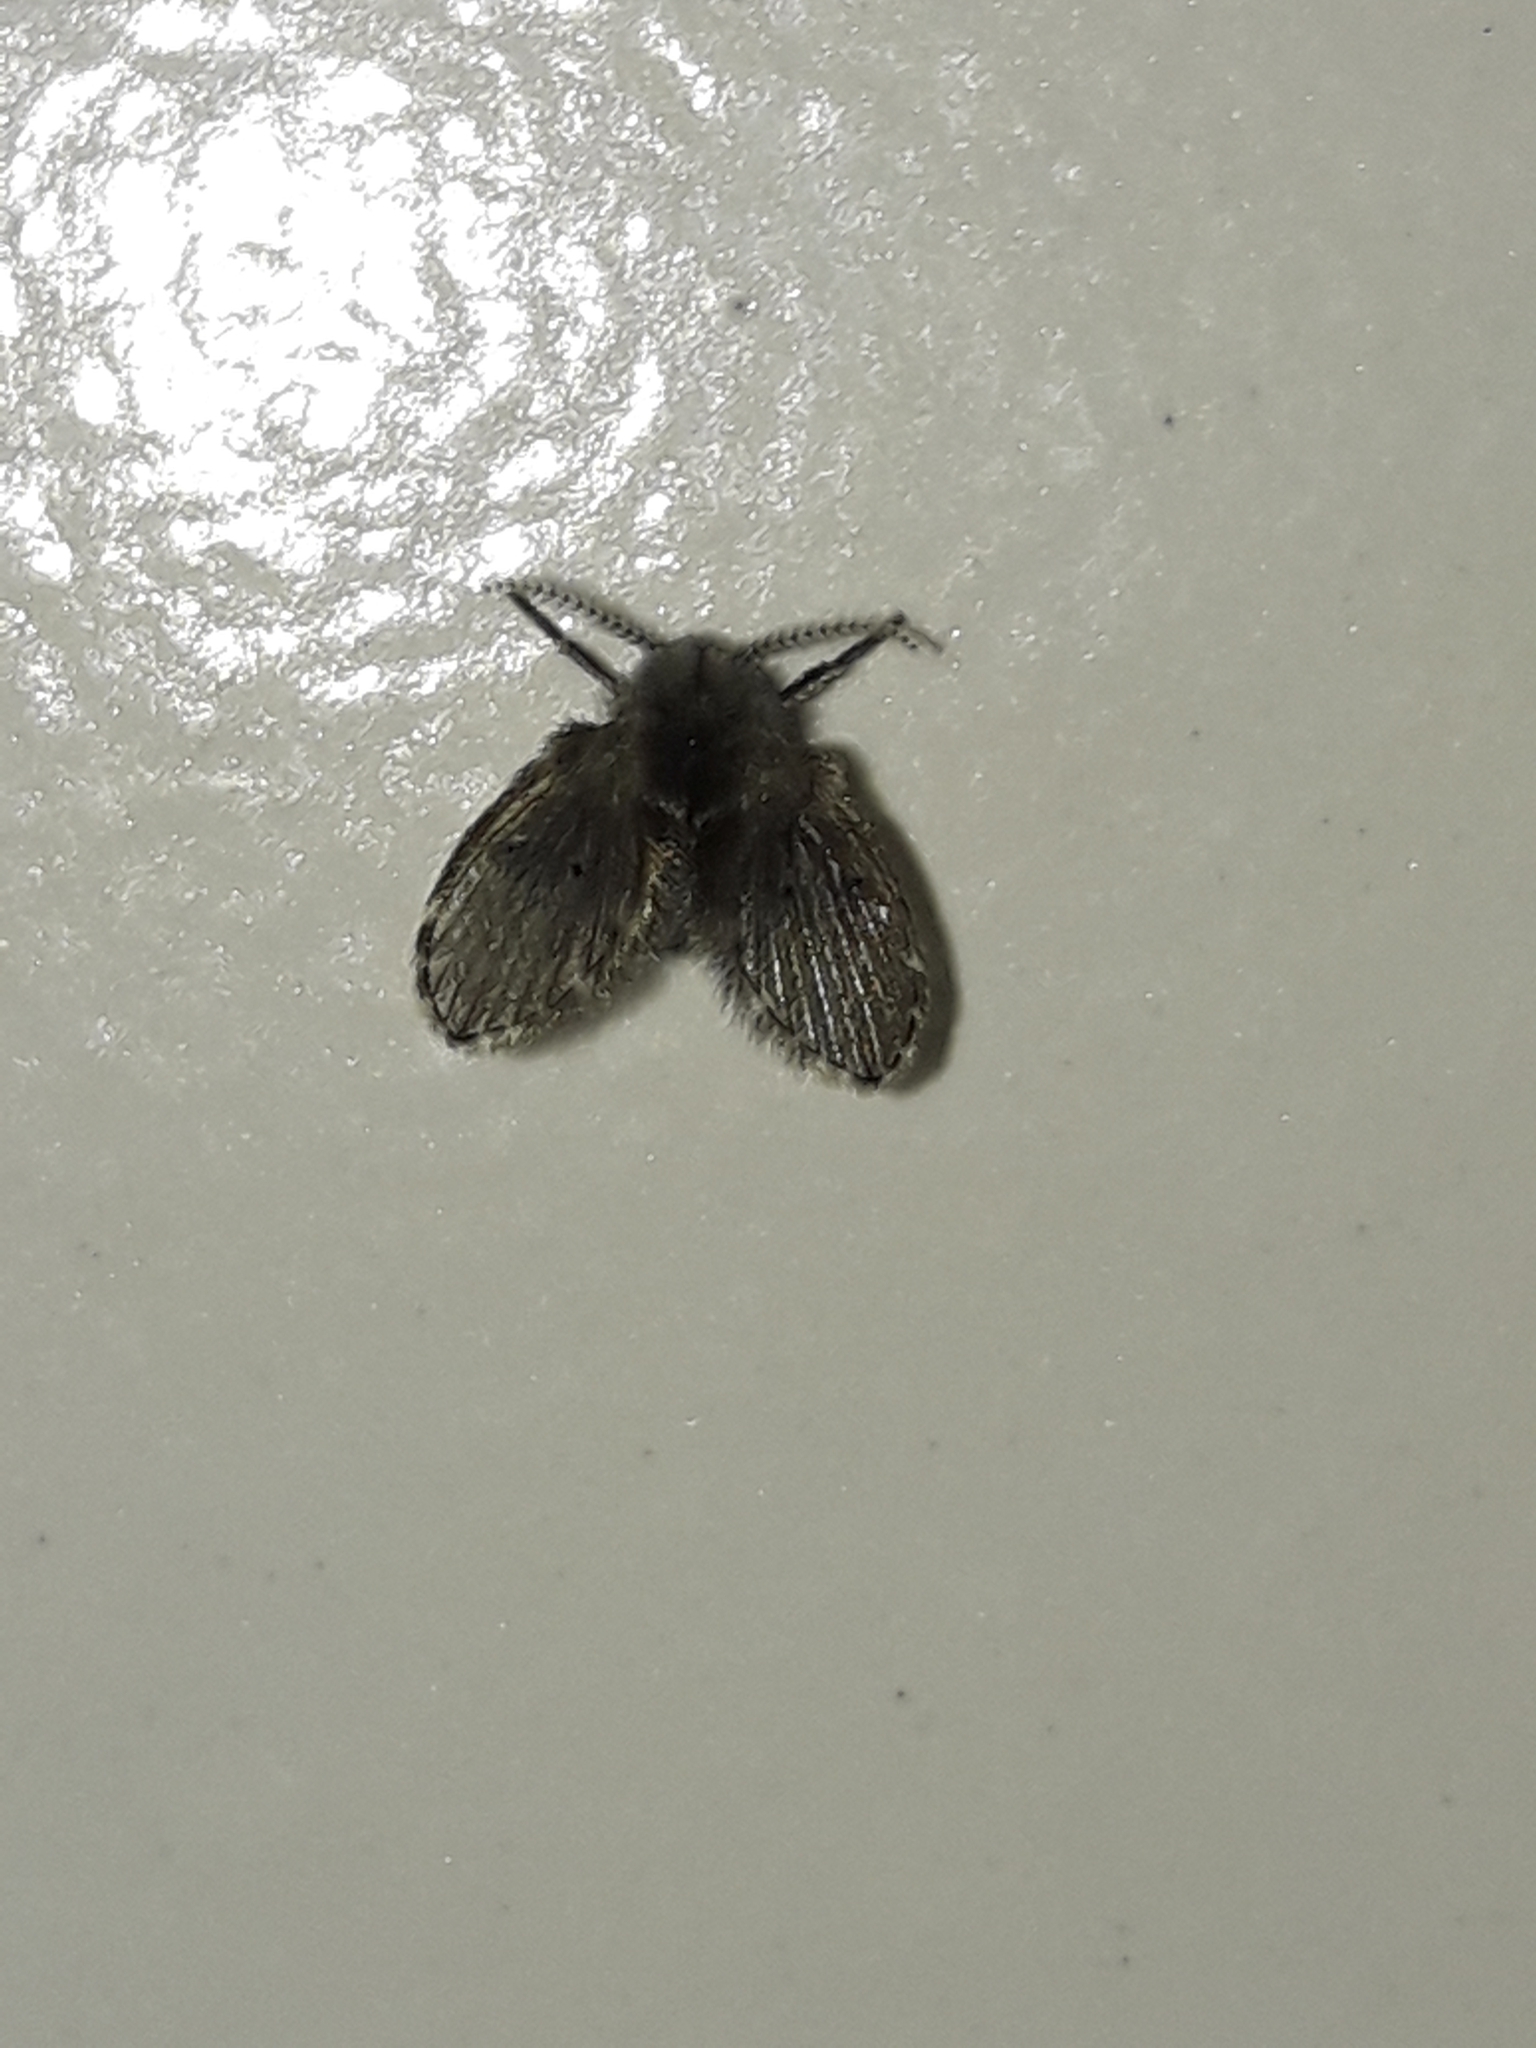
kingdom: Animalia
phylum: Arthropoda
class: Insecta
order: Diptera
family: Psychodidae
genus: Clogmia
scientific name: Clogmia albipunctatus
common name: White-spotted moth fly
